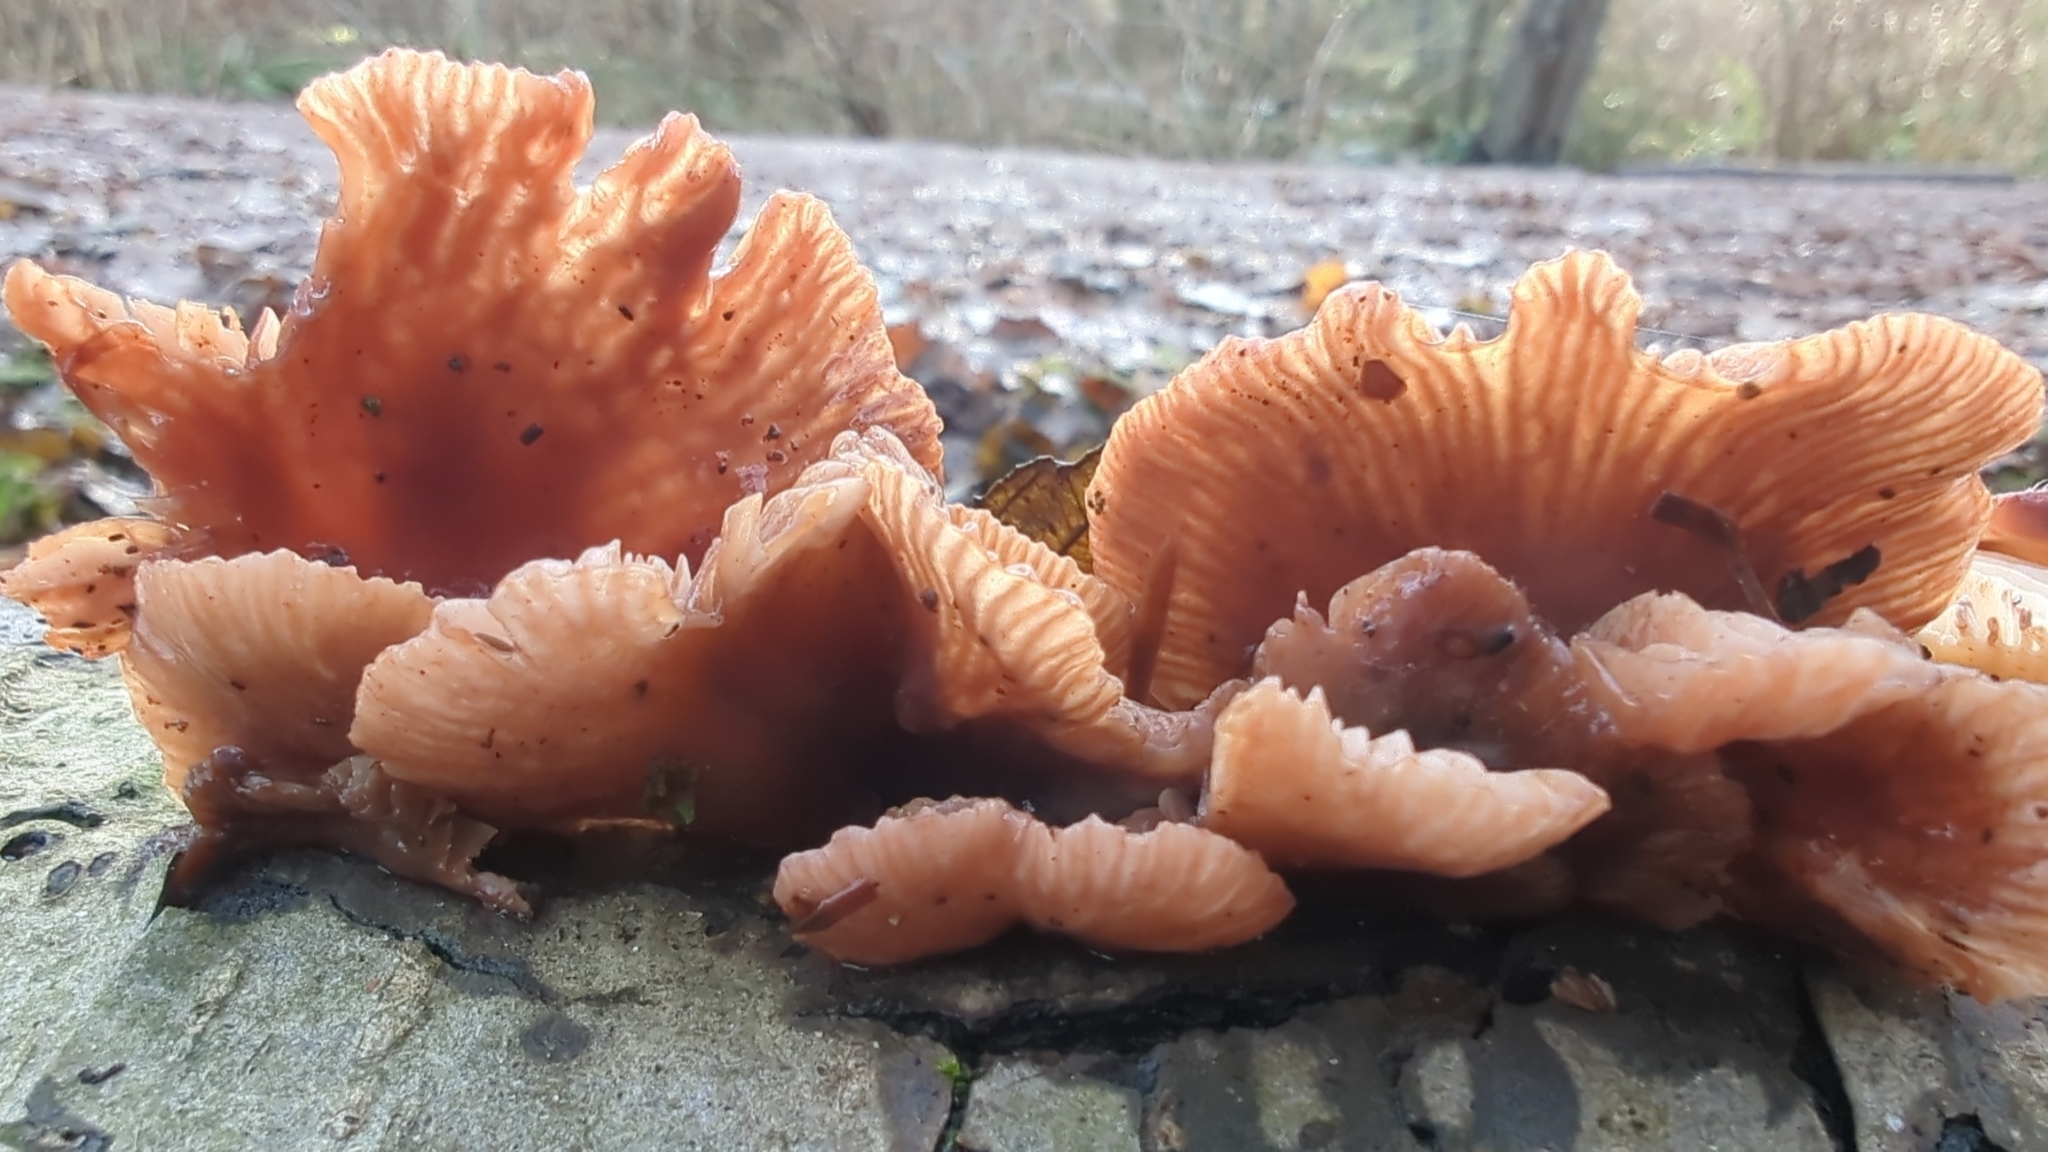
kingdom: Fungi
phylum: Basidiomycota
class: Agaricomycetes
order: Agaricales
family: Mycenaceae
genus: Panellus
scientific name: Panellus longinquus
